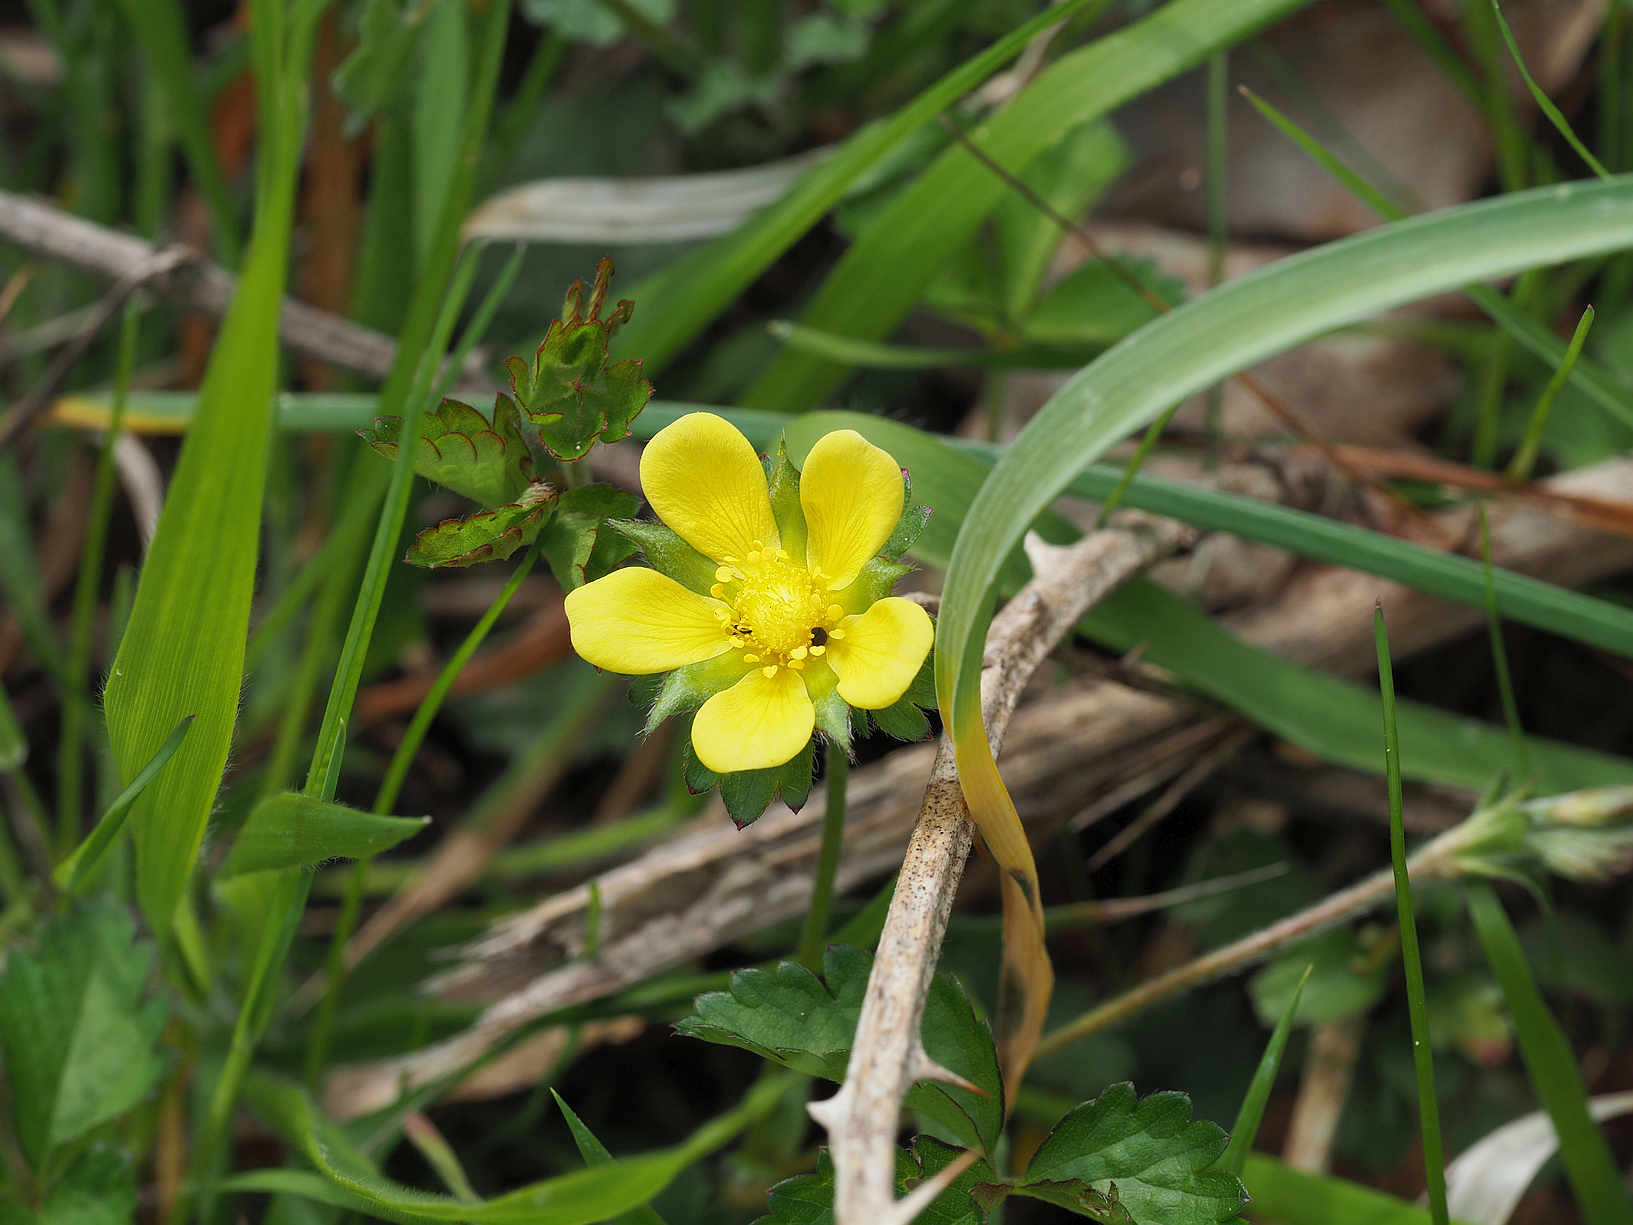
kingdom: Plantae
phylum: Tracheophyta
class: Magnoliopsida
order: Rosales
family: Rosaceae
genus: Potentilla
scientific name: Potentilla indica
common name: Yellow-flowered strawberry
